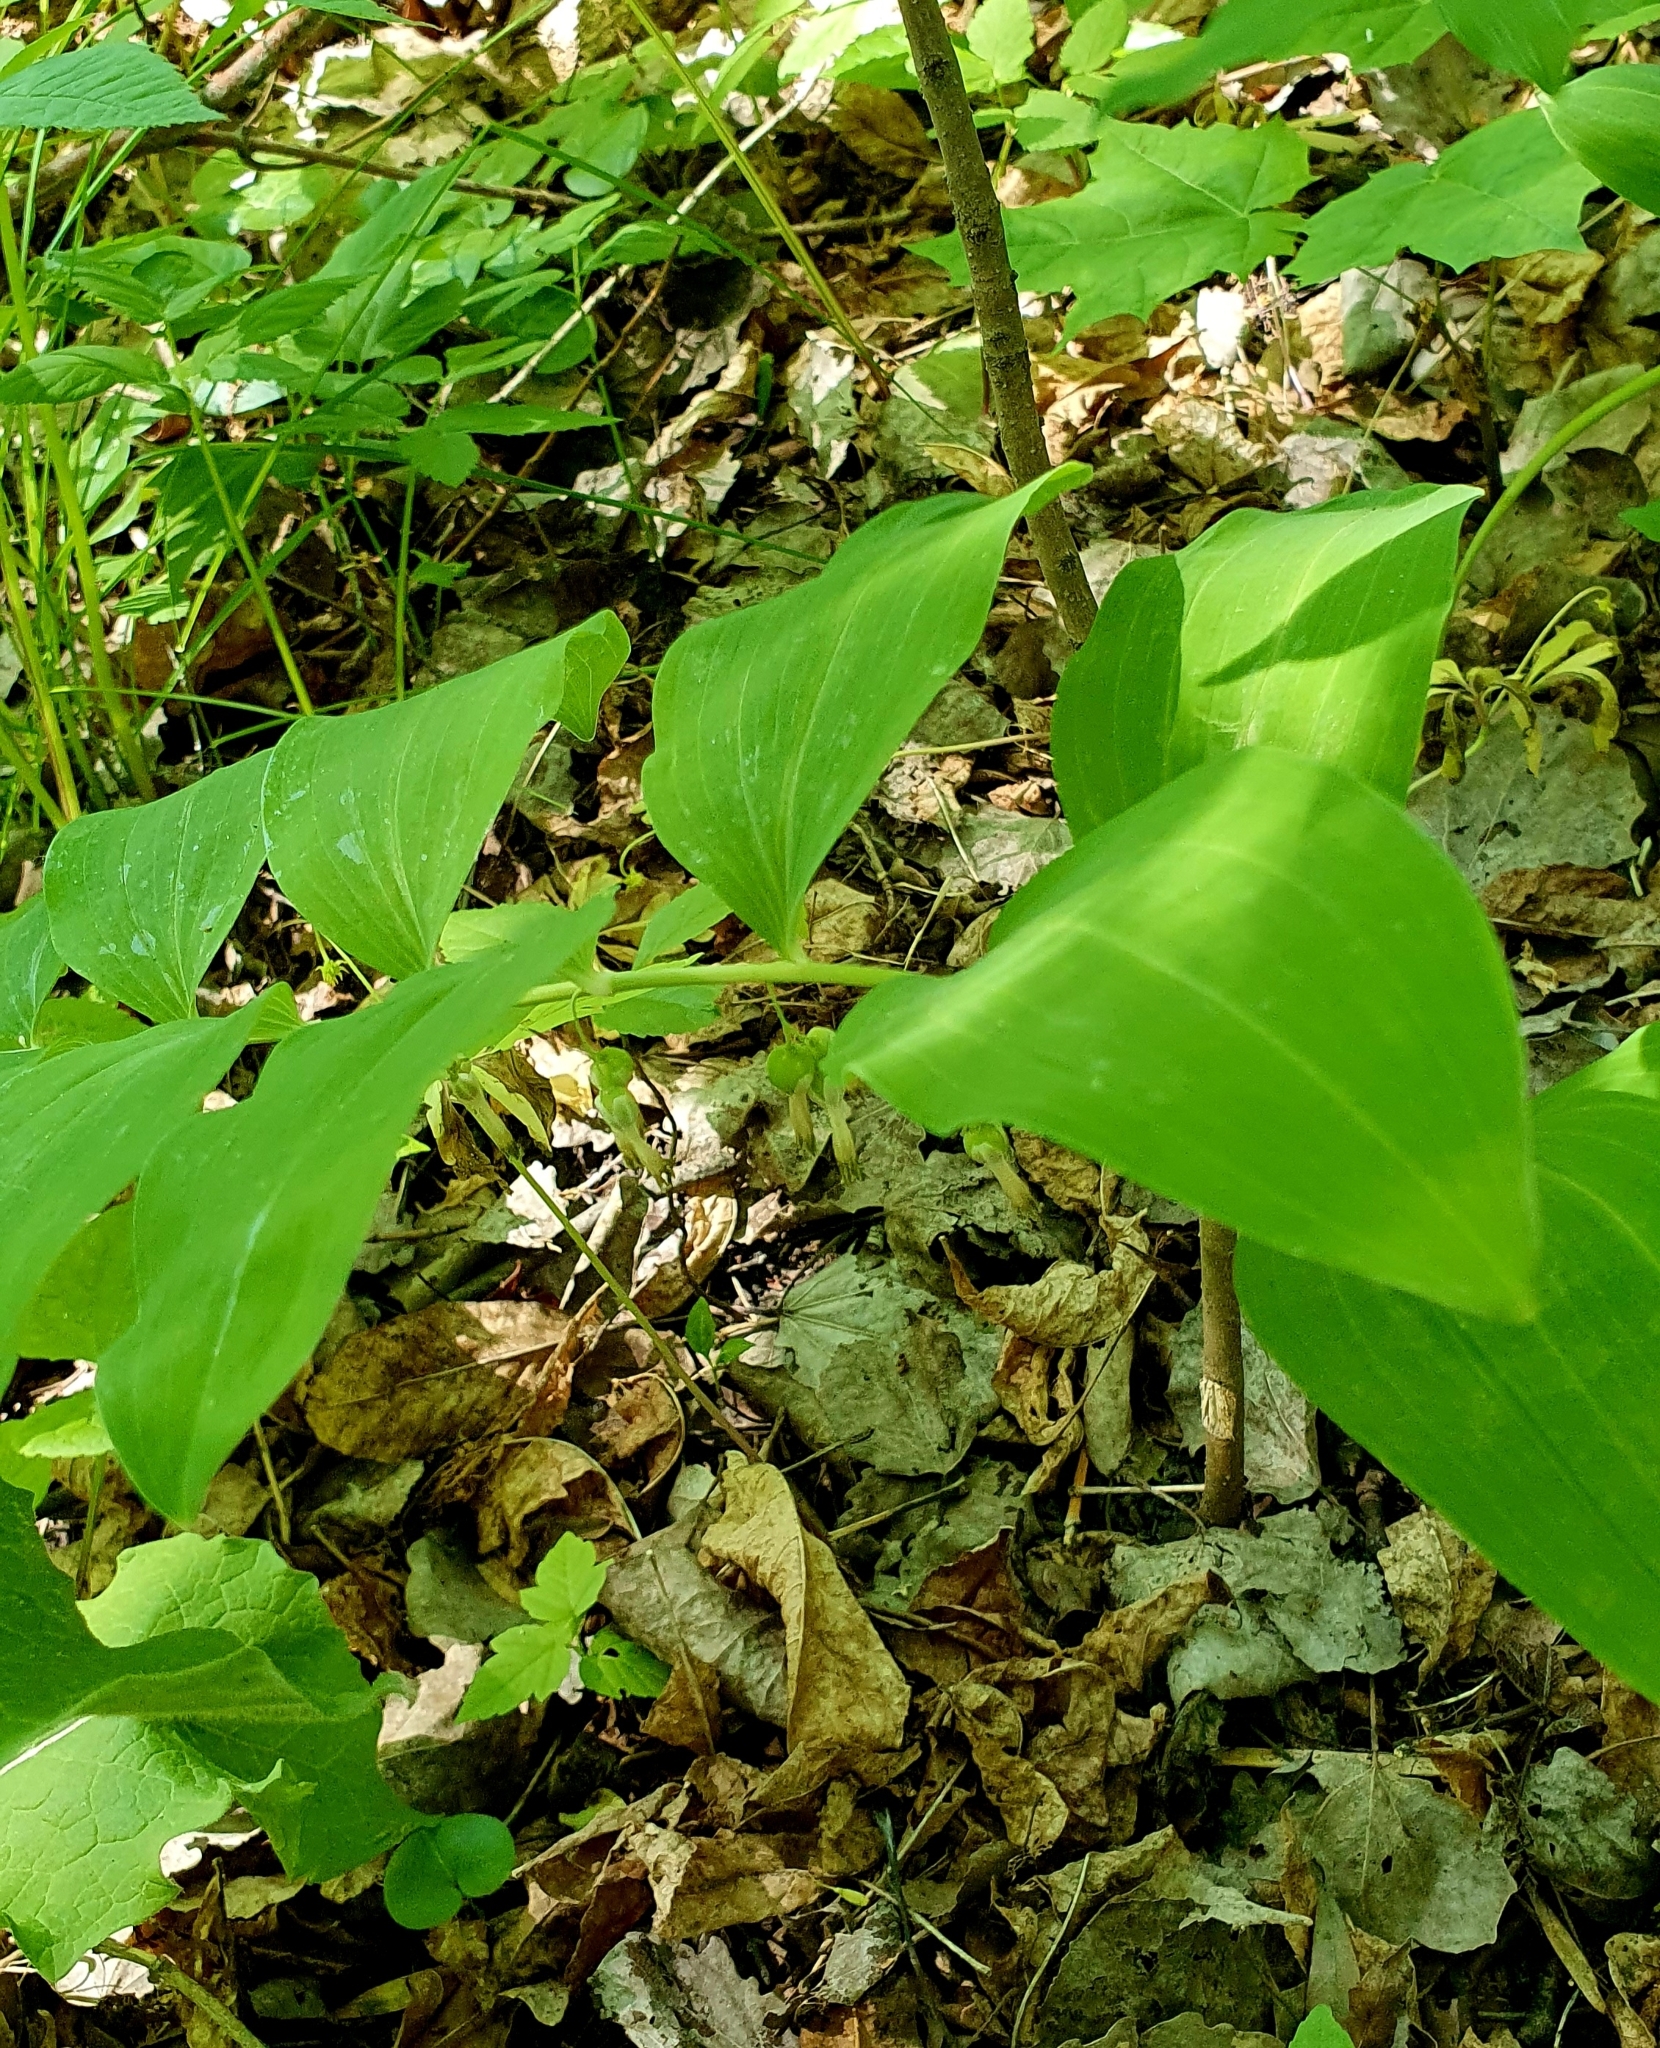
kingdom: Plantae
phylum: Tracheophyta
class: Liliopsida
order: Asparagales
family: Asparagaceae
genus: Polygonatum
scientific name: Polygonatum multiflorum
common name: Solomon's-seal
